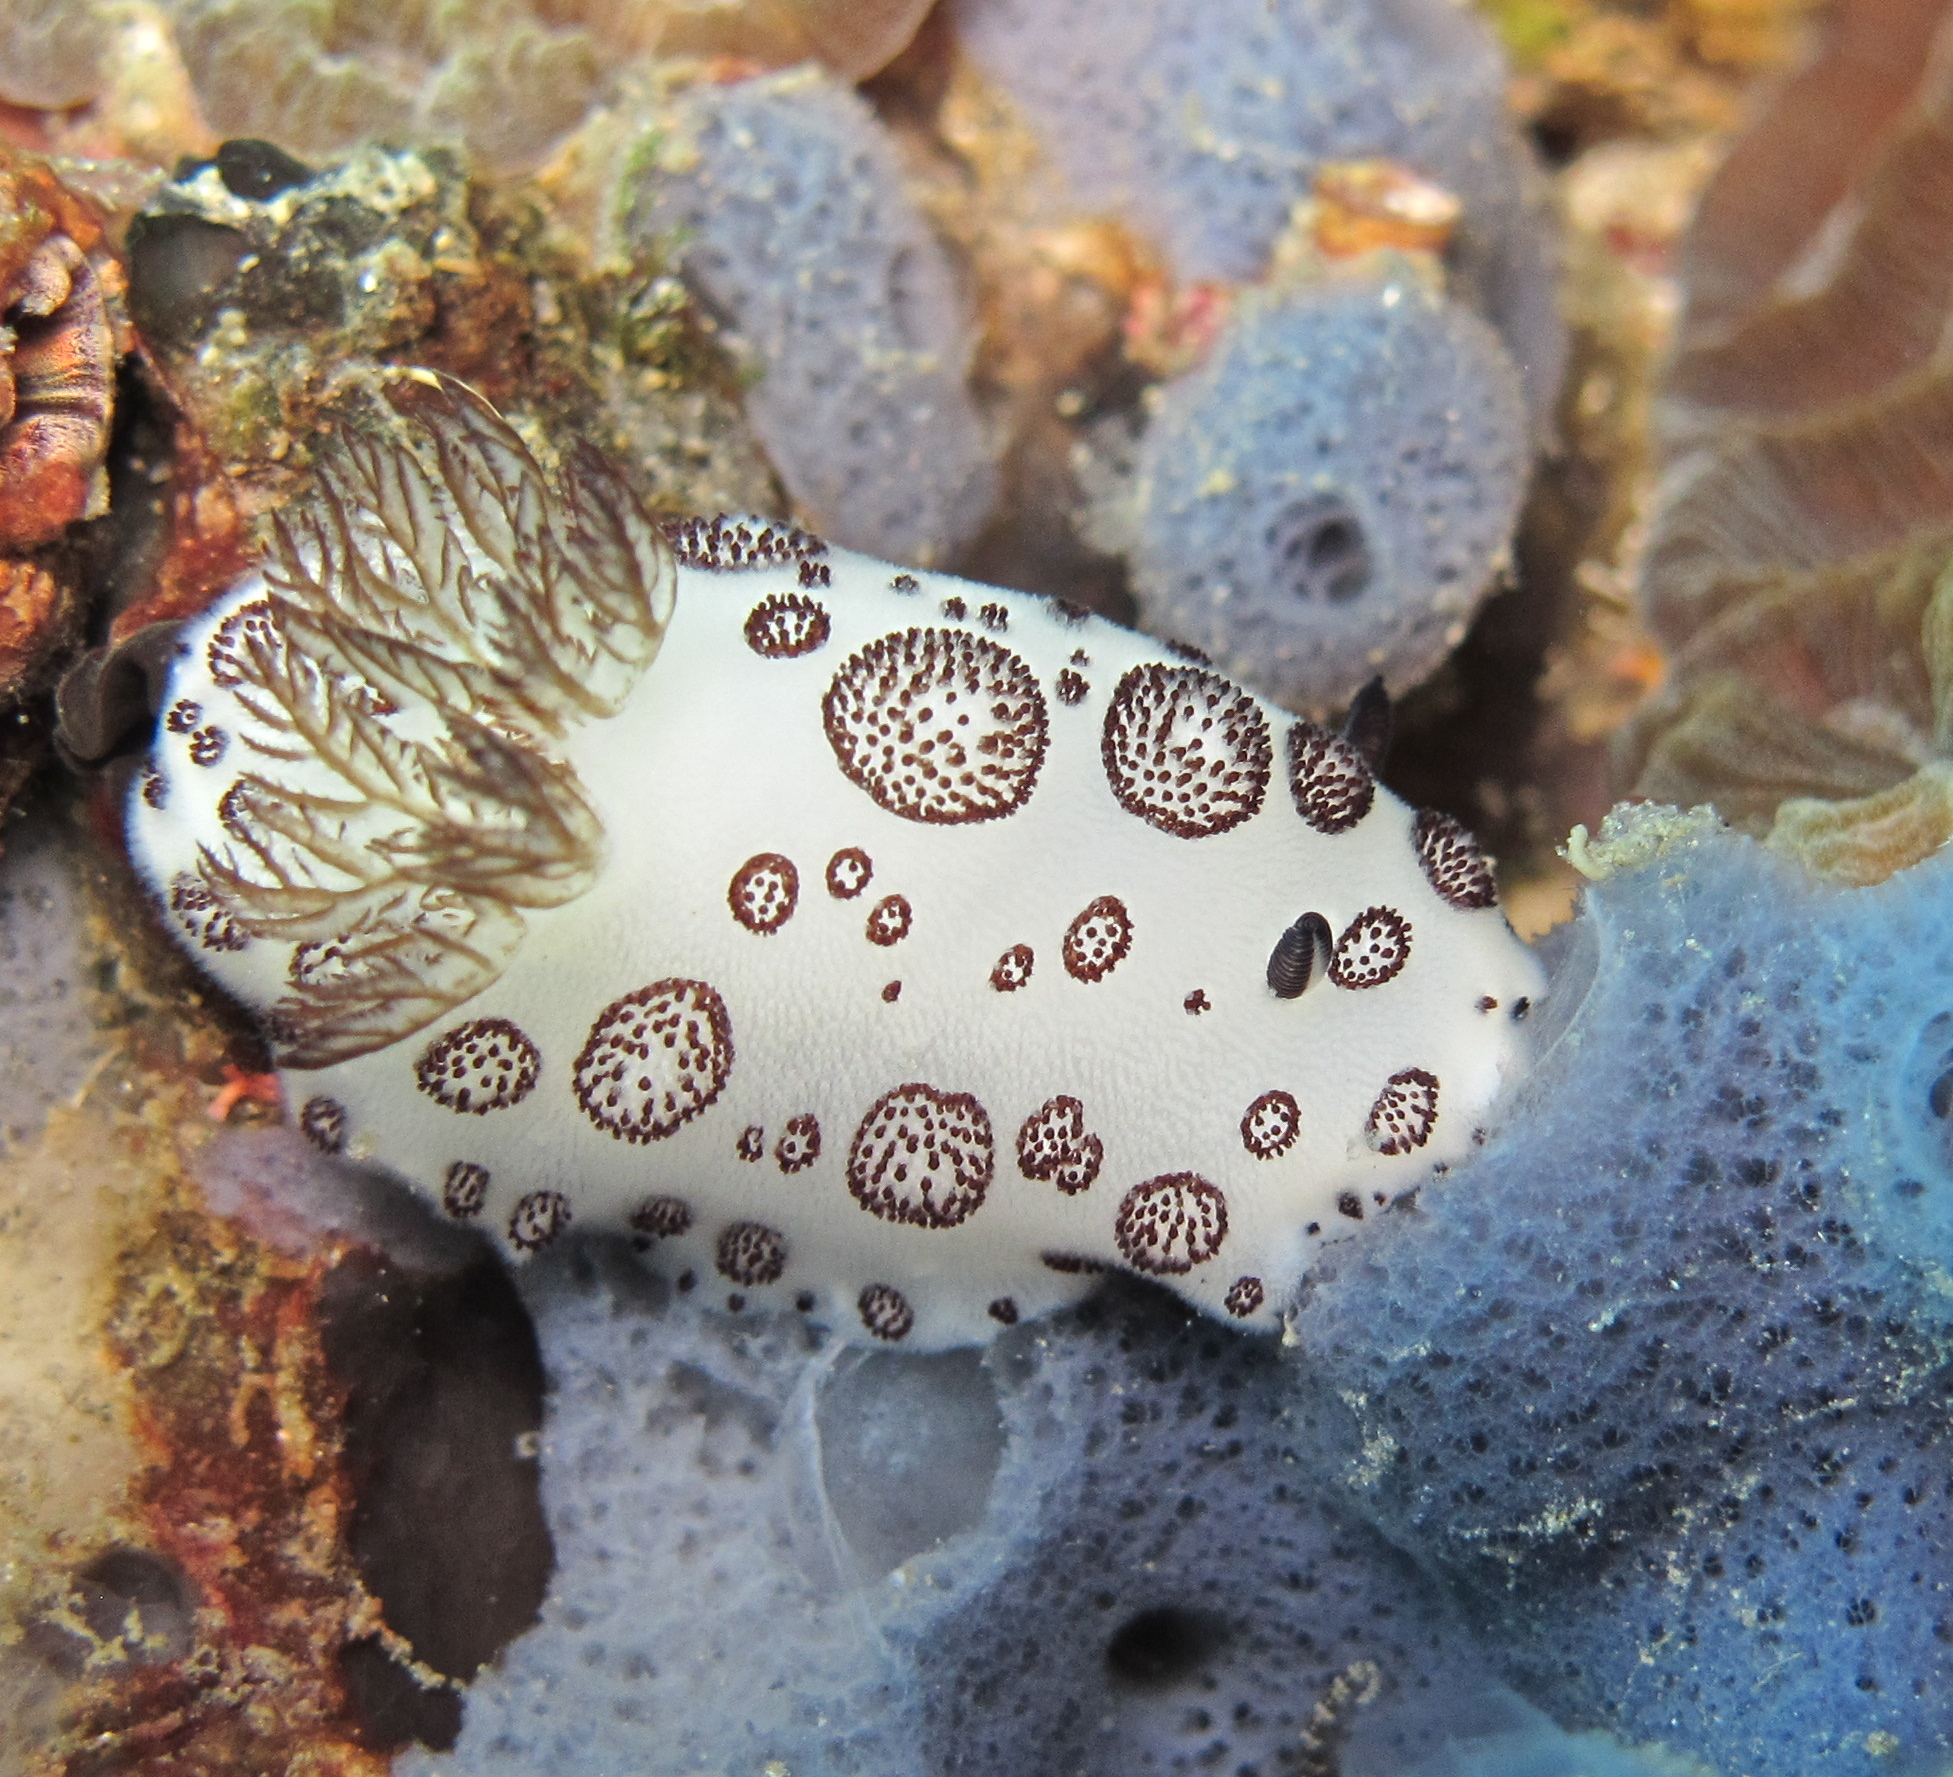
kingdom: Animalia
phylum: Mollusca
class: Gastropoda
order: Nudibranchia
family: Discodorididae
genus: Jorunna
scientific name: Jorunna funebris
